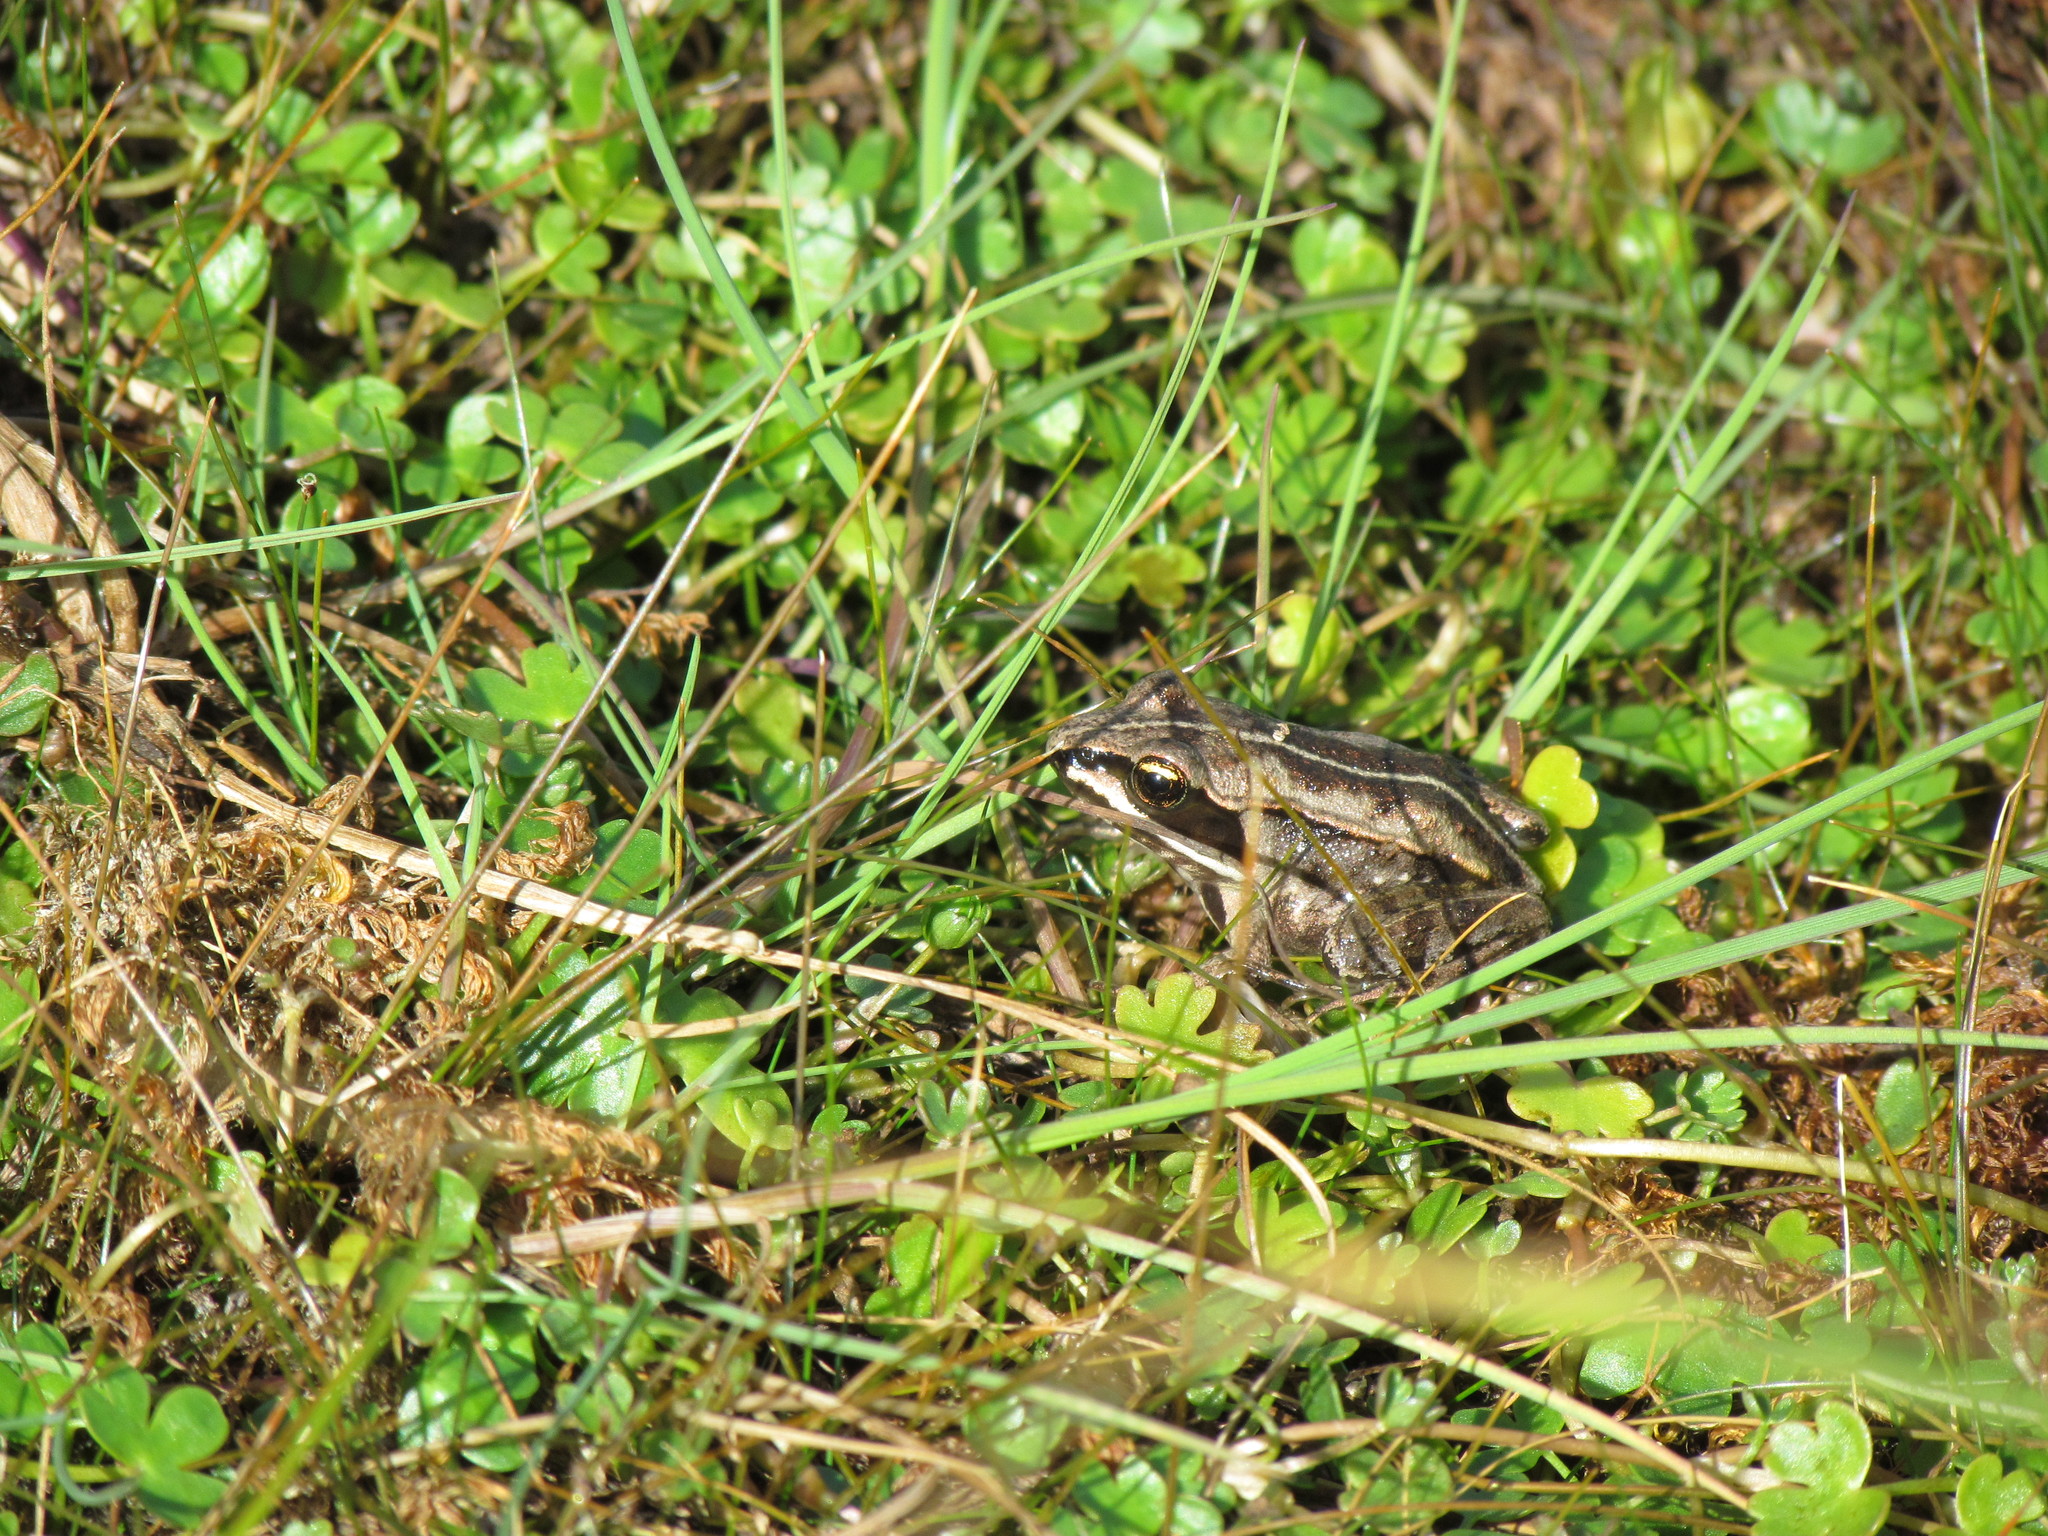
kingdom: Animalia
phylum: Chordata
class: Amphibia
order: Anura
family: Ranidae
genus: Lithobates
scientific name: Lithobates sylvaticus
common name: Wood frog
